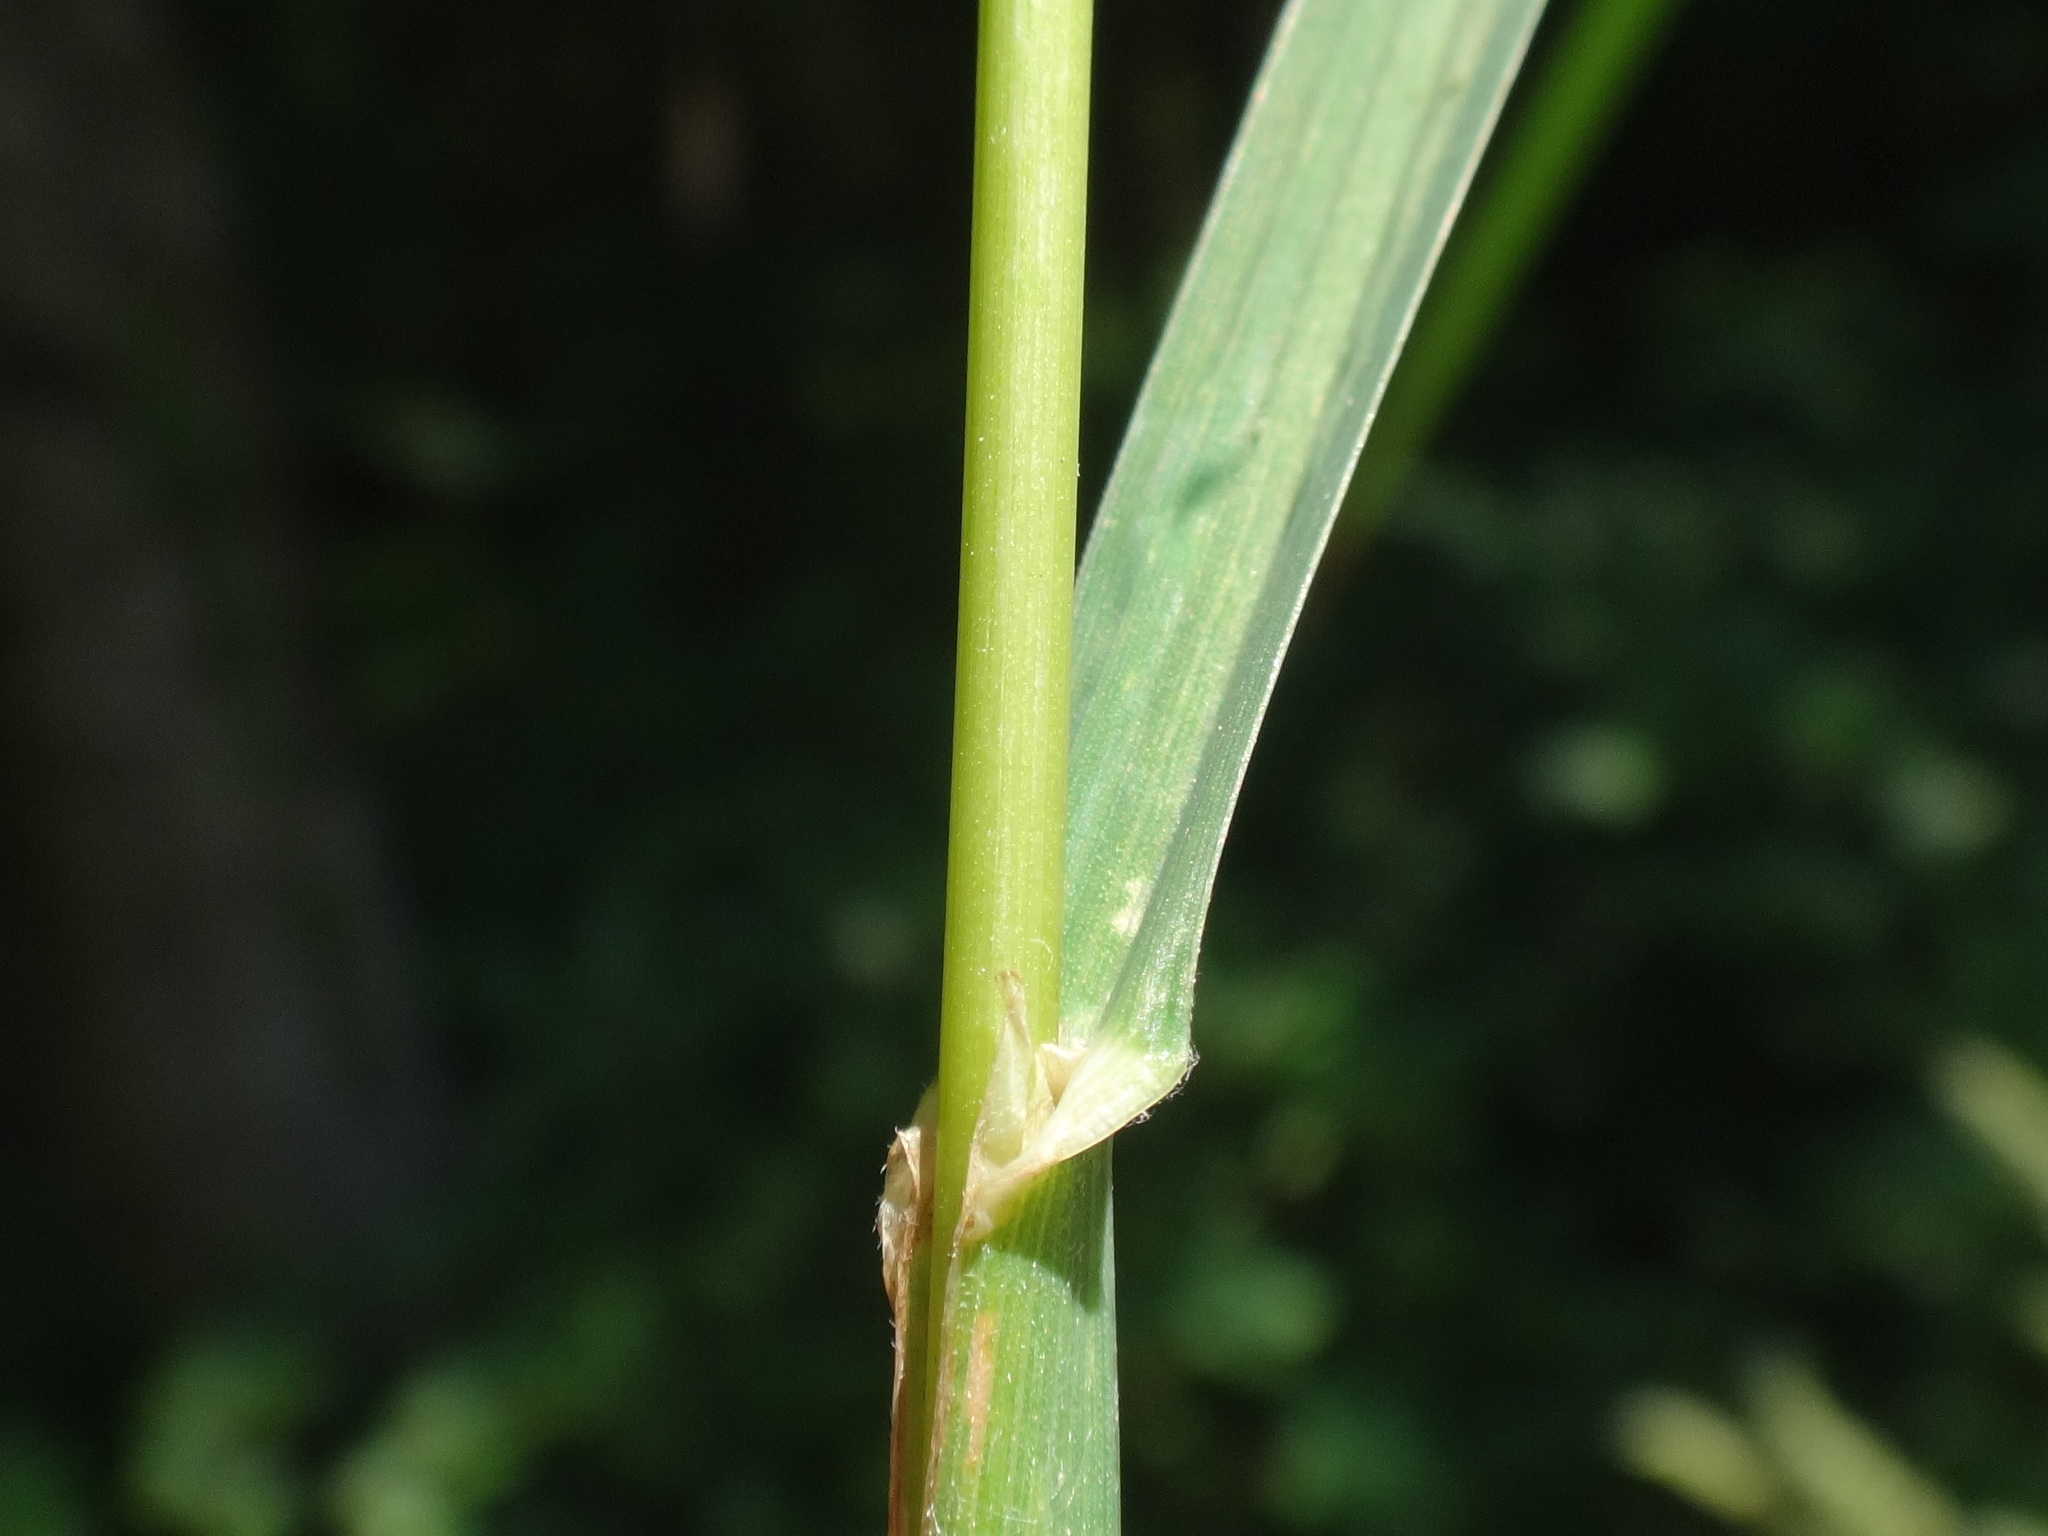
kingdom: Plantae
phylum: Tracheophyta
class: Liliopsida
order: Poales
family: Poaceae
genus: Dactylis
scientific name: Dactylis glomerata
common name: Orchardgrass
